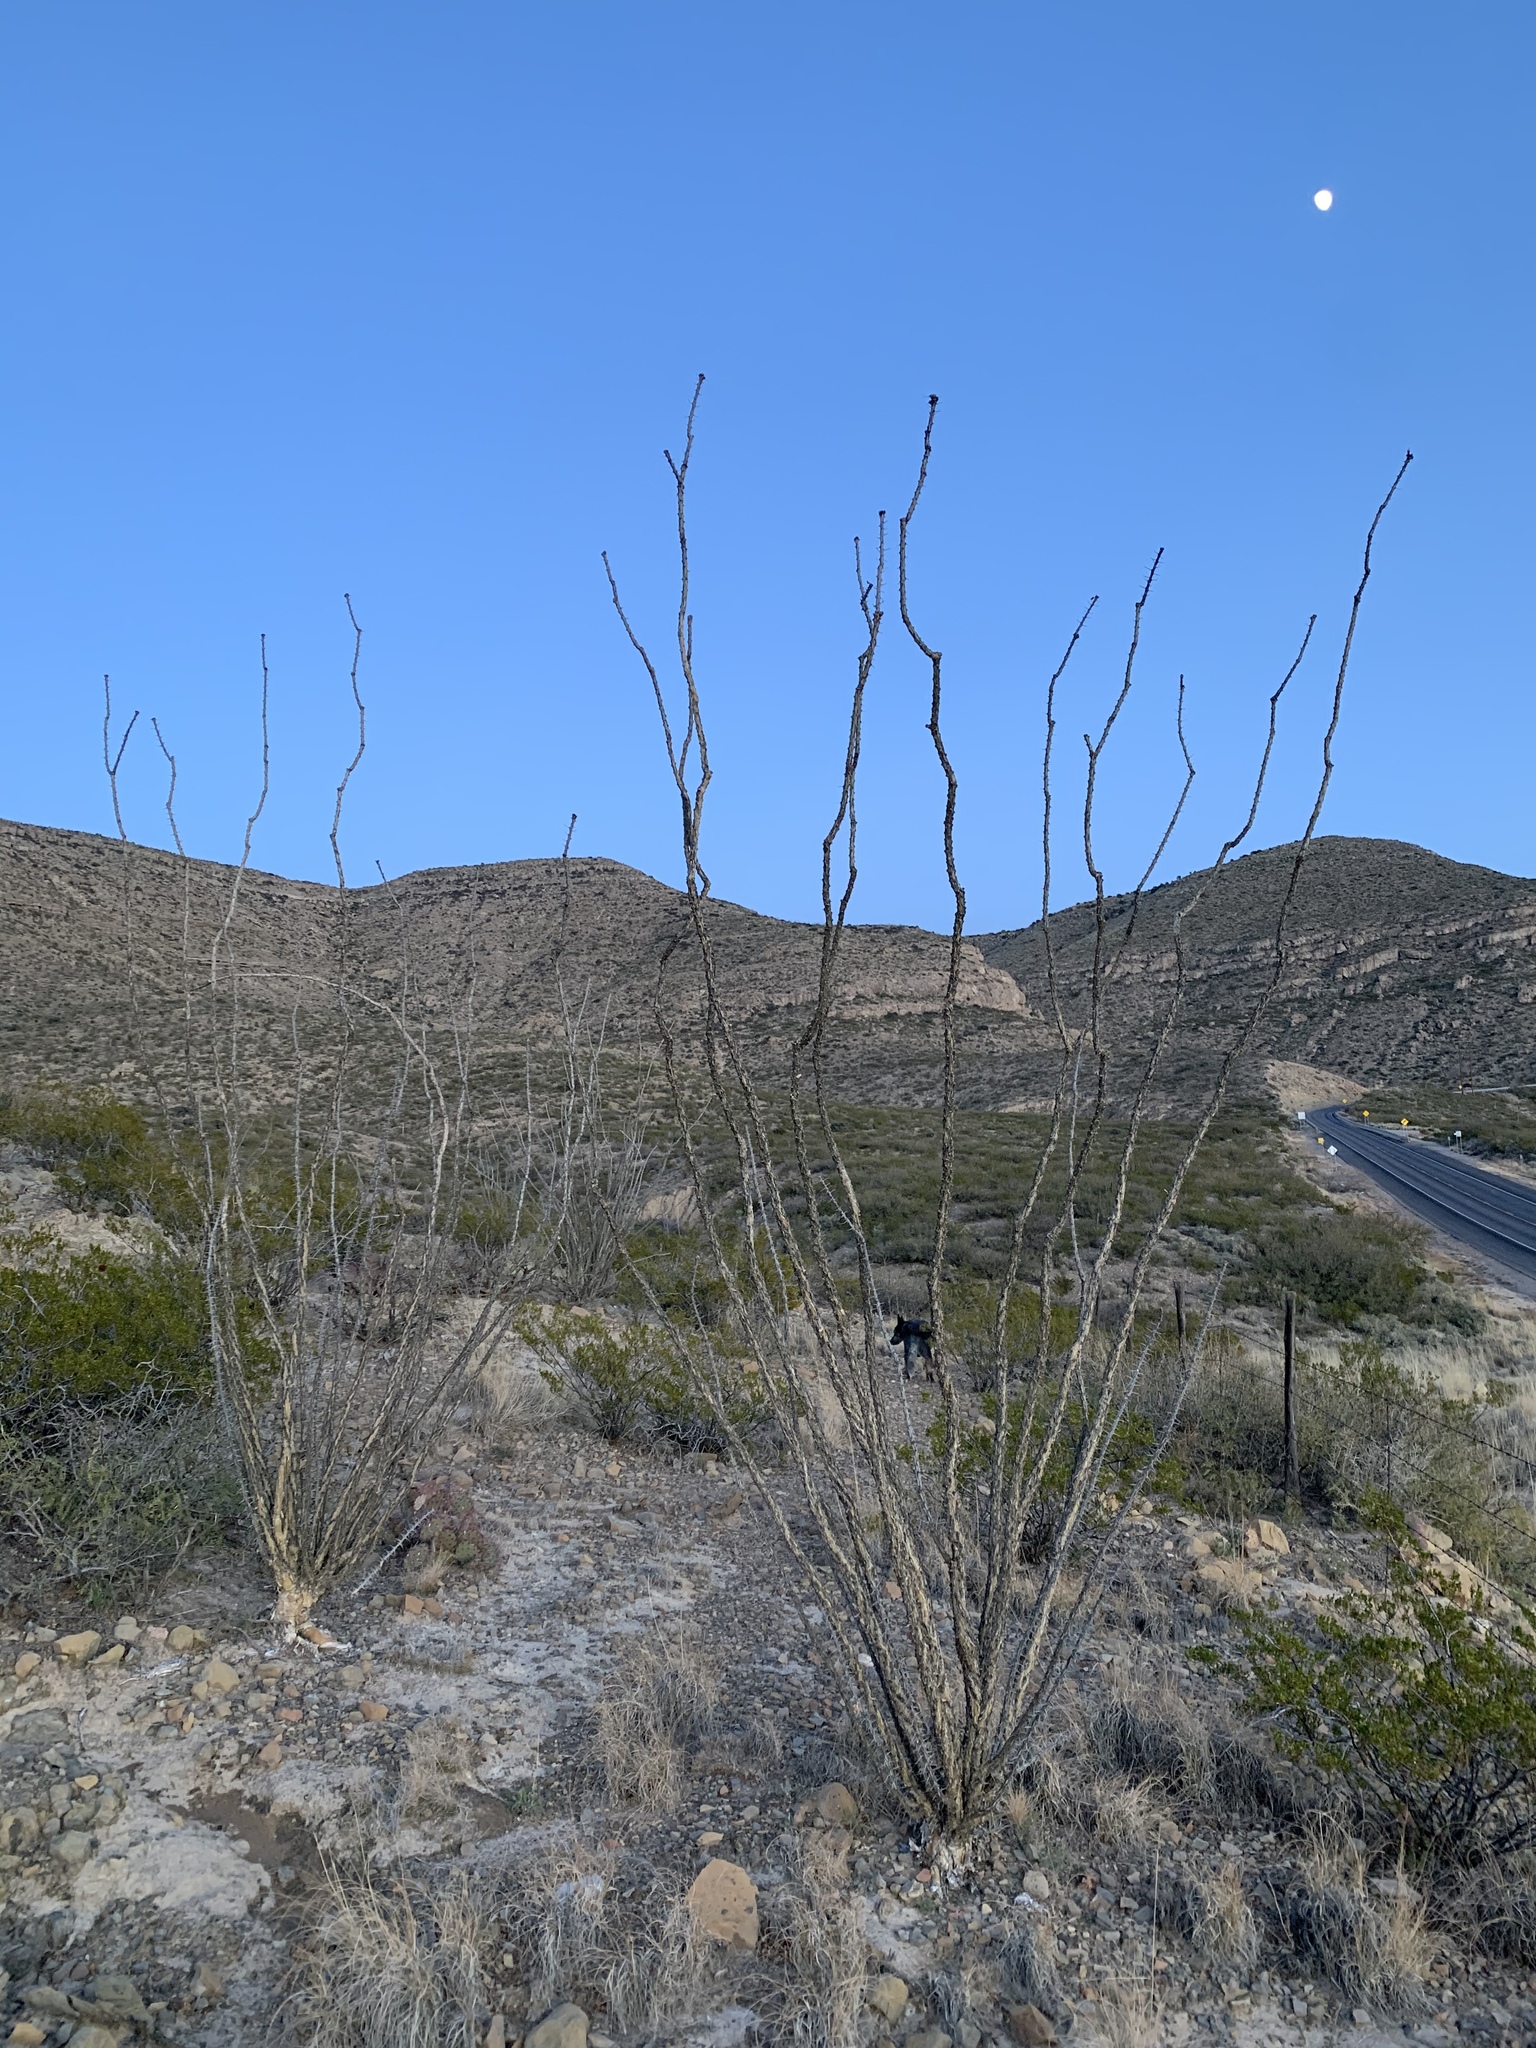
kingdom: Plantae
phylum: Tracheophyta
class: Magnoliopsida
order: Ericales
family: Fouquieriaceae
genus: Fouquieria
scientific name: Fouquieria splendens
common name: Vine-cactus
